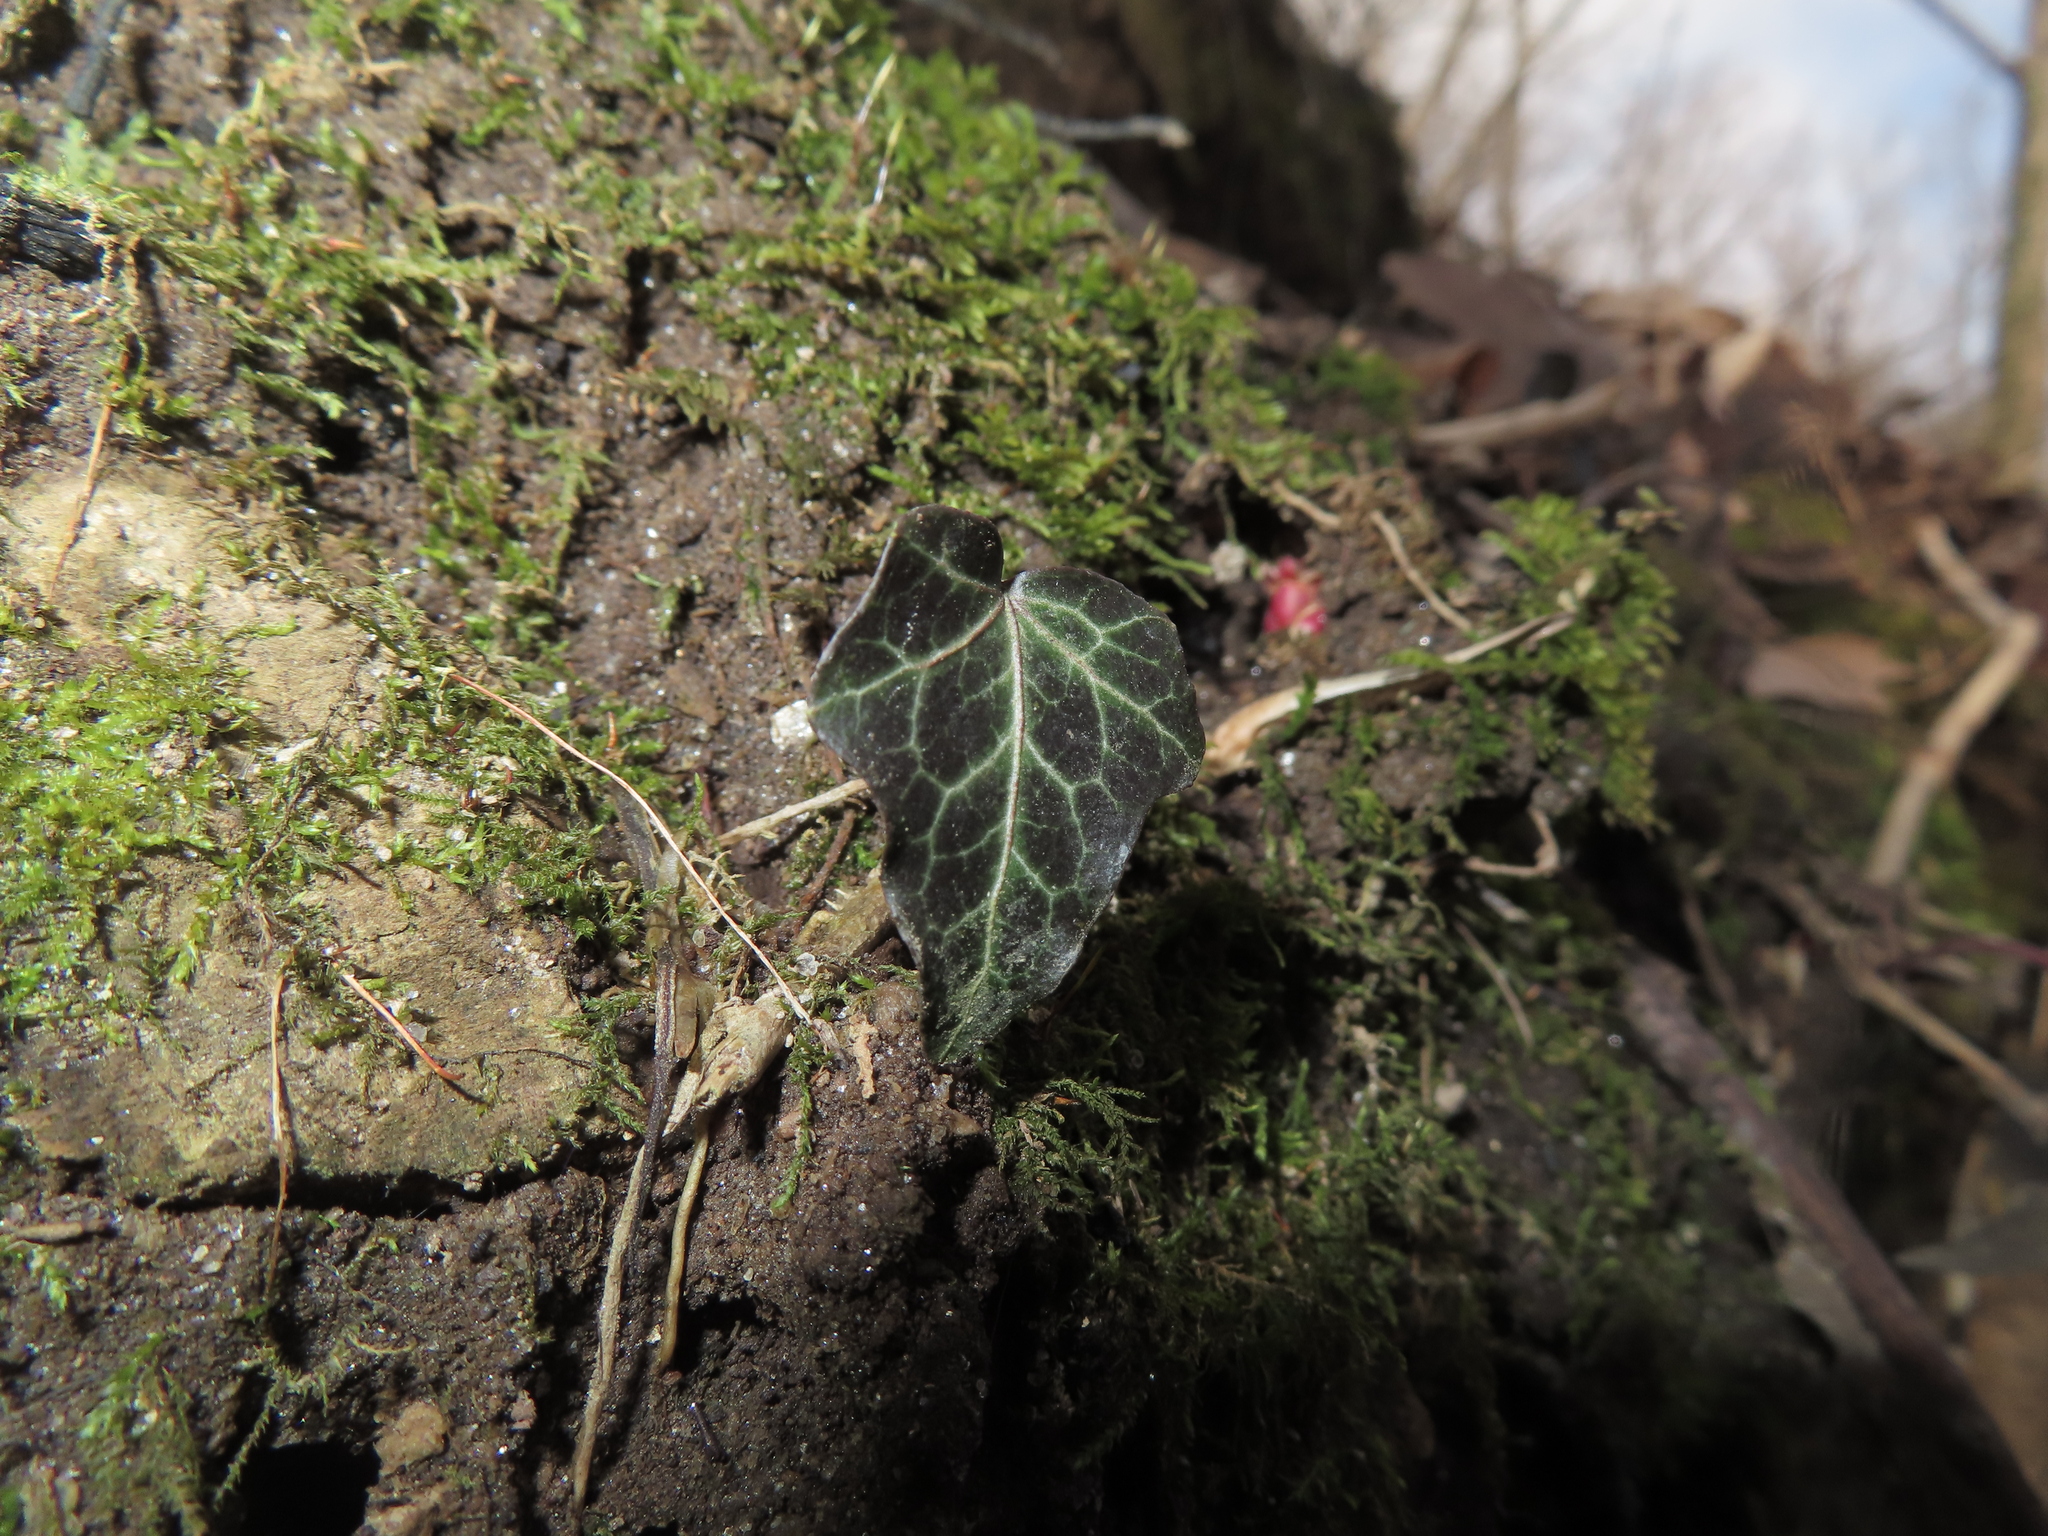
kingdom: Plantae
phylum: Tracheophyta
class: Magnoliopsida
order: Apiales
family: Araliaceae
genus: Hedera
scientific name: Hedera helix
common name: Ivy
